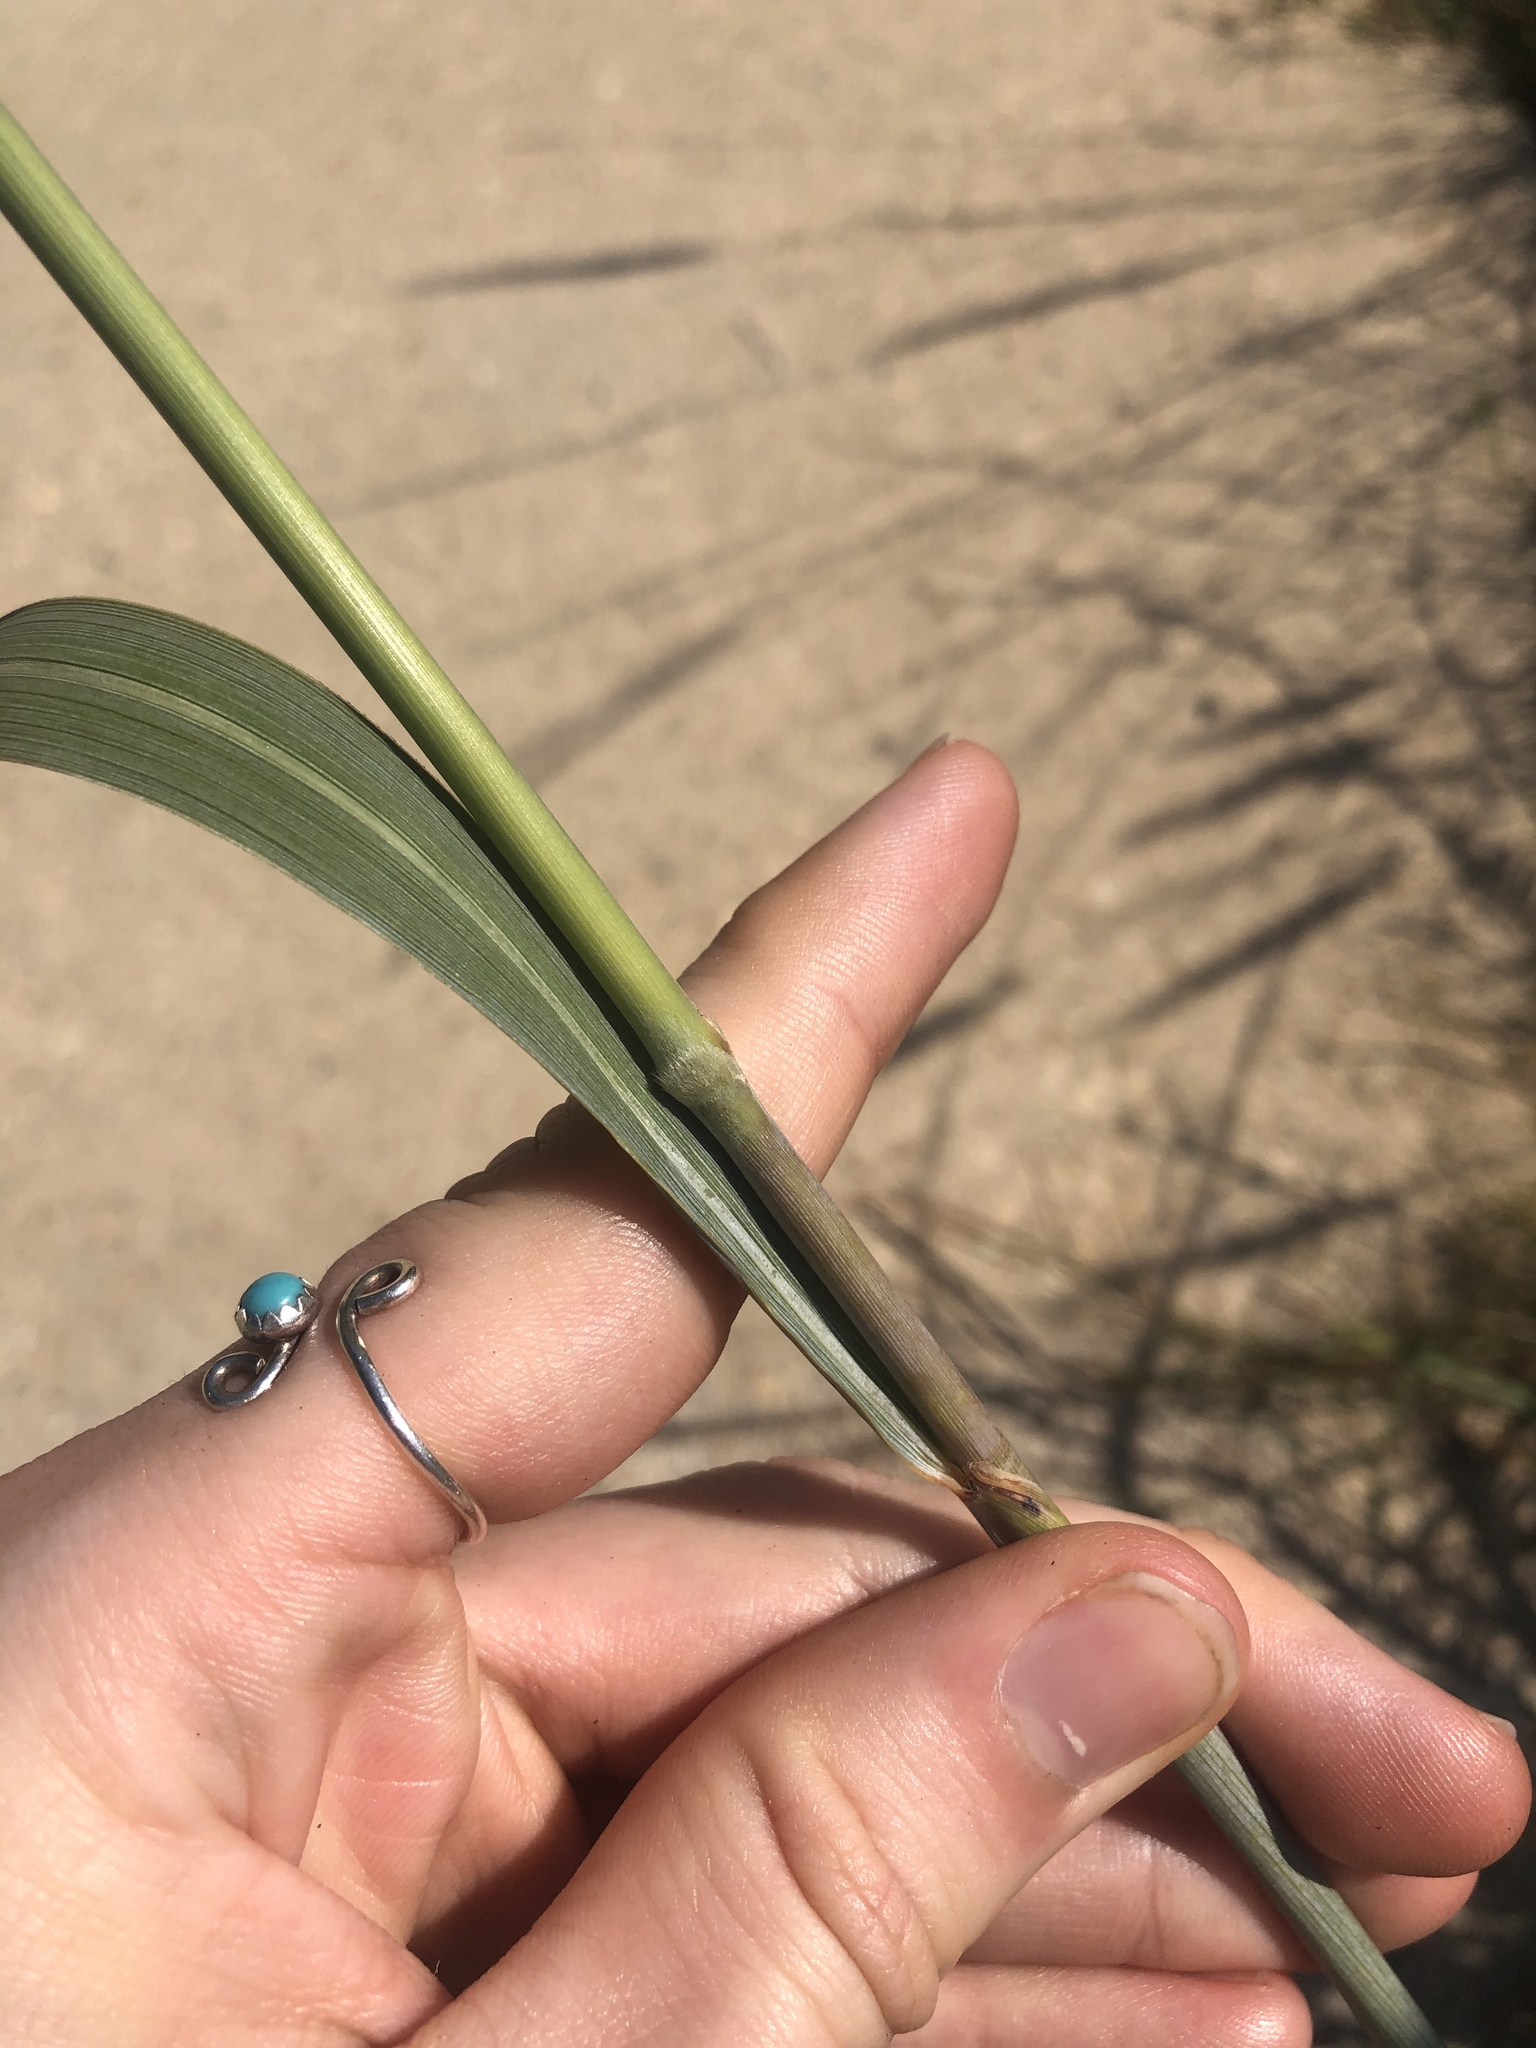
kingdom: Plantae
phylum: Tracheophyta
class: Liliopsida
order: Poales
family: Poaceae
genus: Sorghastrum
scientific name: Sorghastrum nutans
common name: Indian grass
